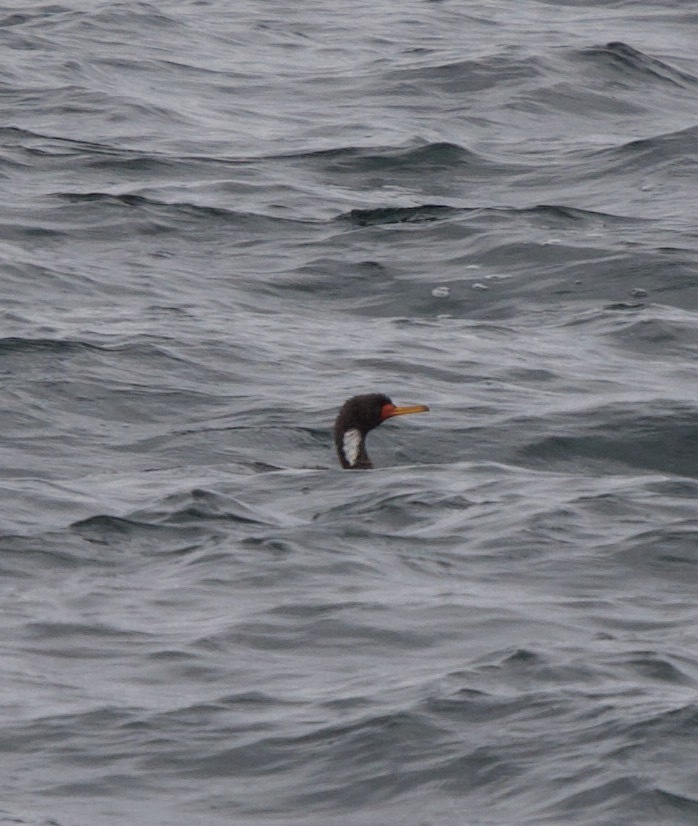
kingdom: Animalia
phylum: Chordata
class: Aves
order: Suliformes
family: Phalacrocoracidae
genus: Phalacrocorax
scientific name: Phalacrocorax gaimardi
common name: Red-legged cormorant
